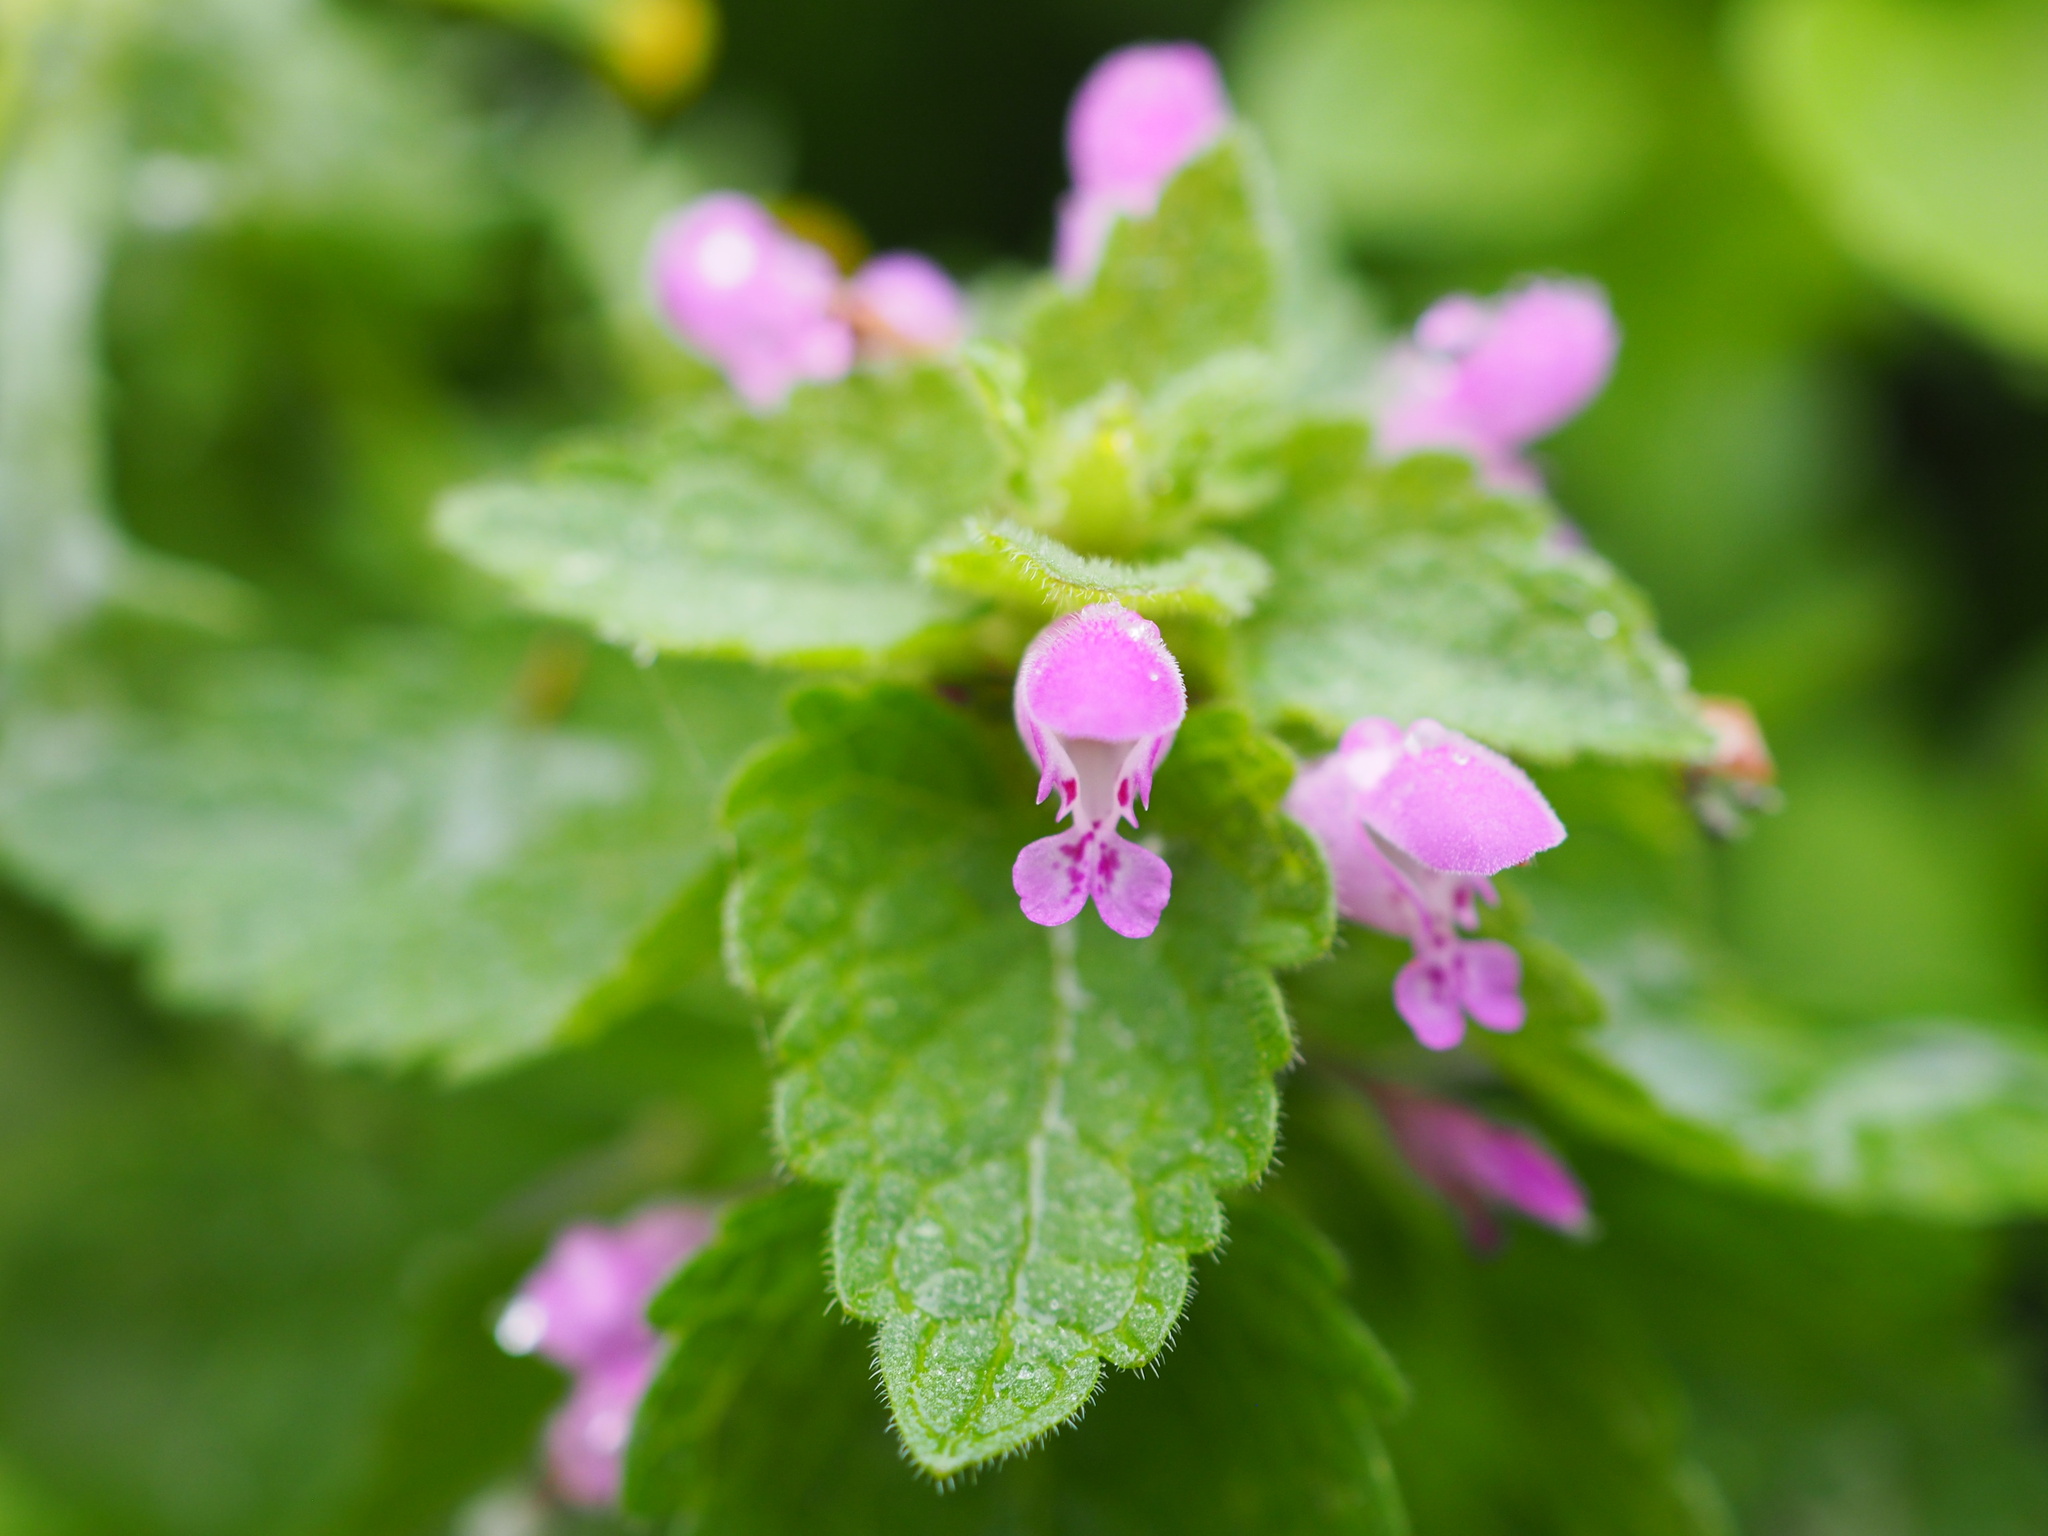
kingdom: Plantae
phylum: Tracheophyta
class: Magnoliopsida
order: Lamiales
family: Lamiaceae
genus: Lamium
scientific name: Lamium purpureum
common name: Red dead-nettle
